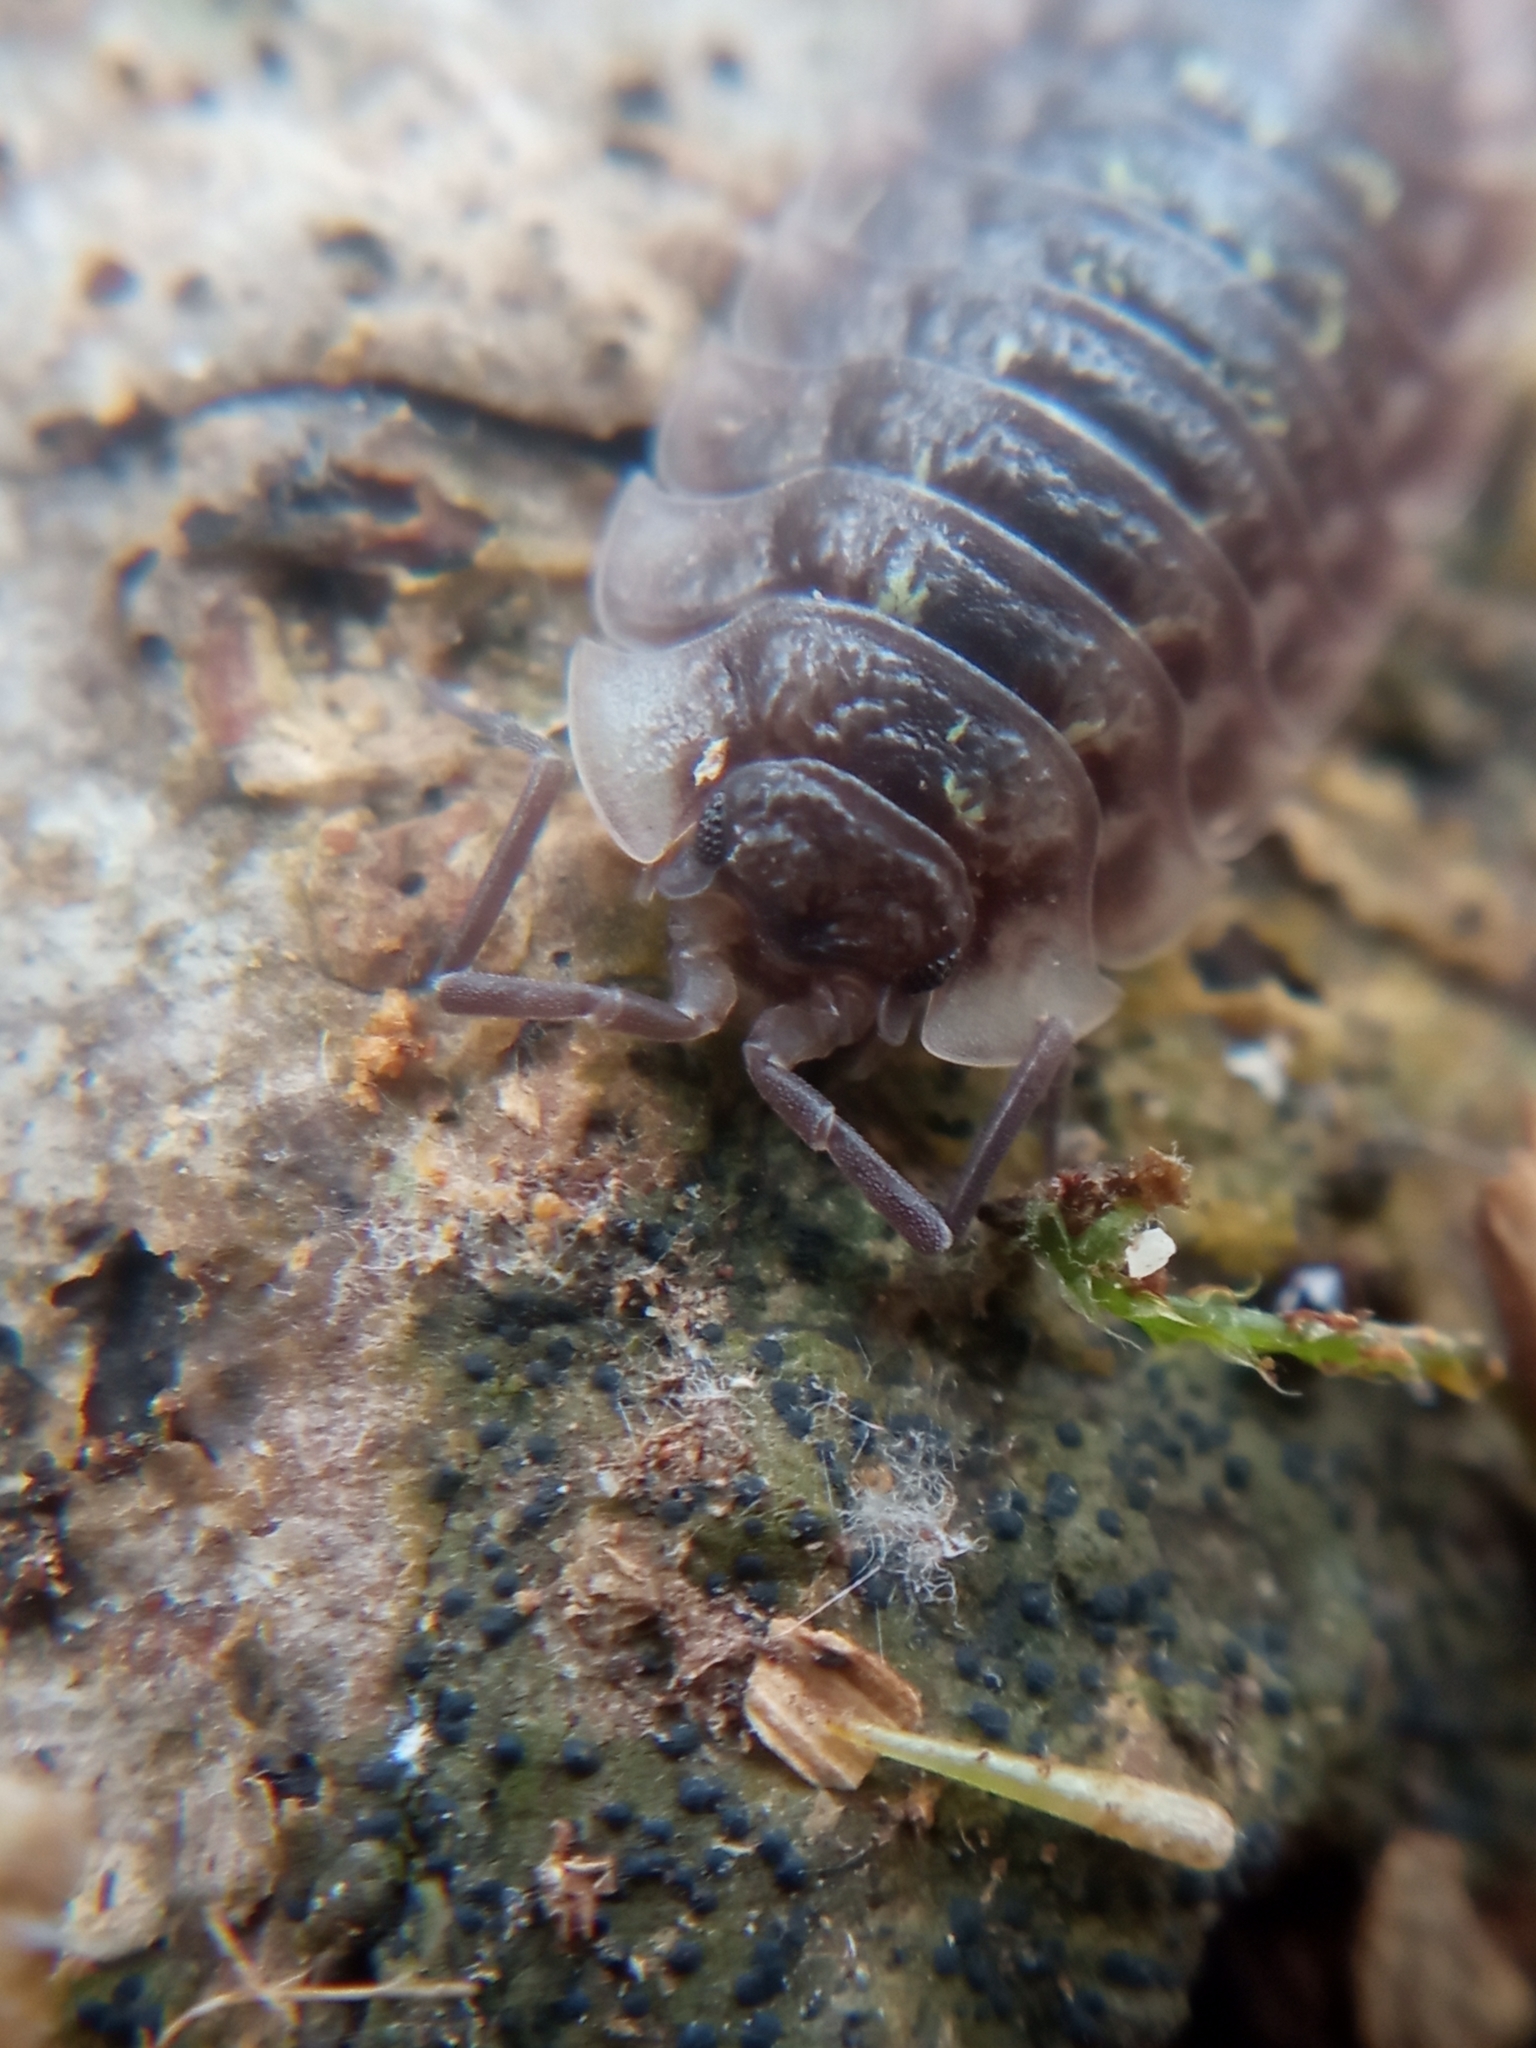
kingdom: Animalia
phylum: Arthropoda
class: Malacostraca
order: Isopoda
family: Oniscidae
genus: Oniscus
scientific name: Oniscus asellus
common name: Common shiny woodlouse
